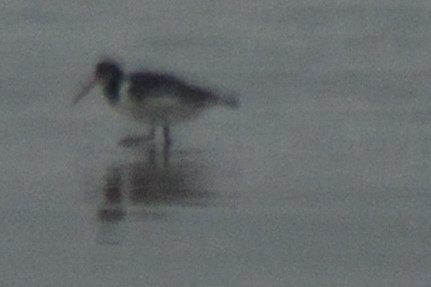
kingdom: Animalia
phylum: Chordata
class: Aves
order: Charadriiformes
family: Haematopodidae
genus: Haematopus
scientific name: Haematopus ostralegus
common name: Eurasian oystercatcher
